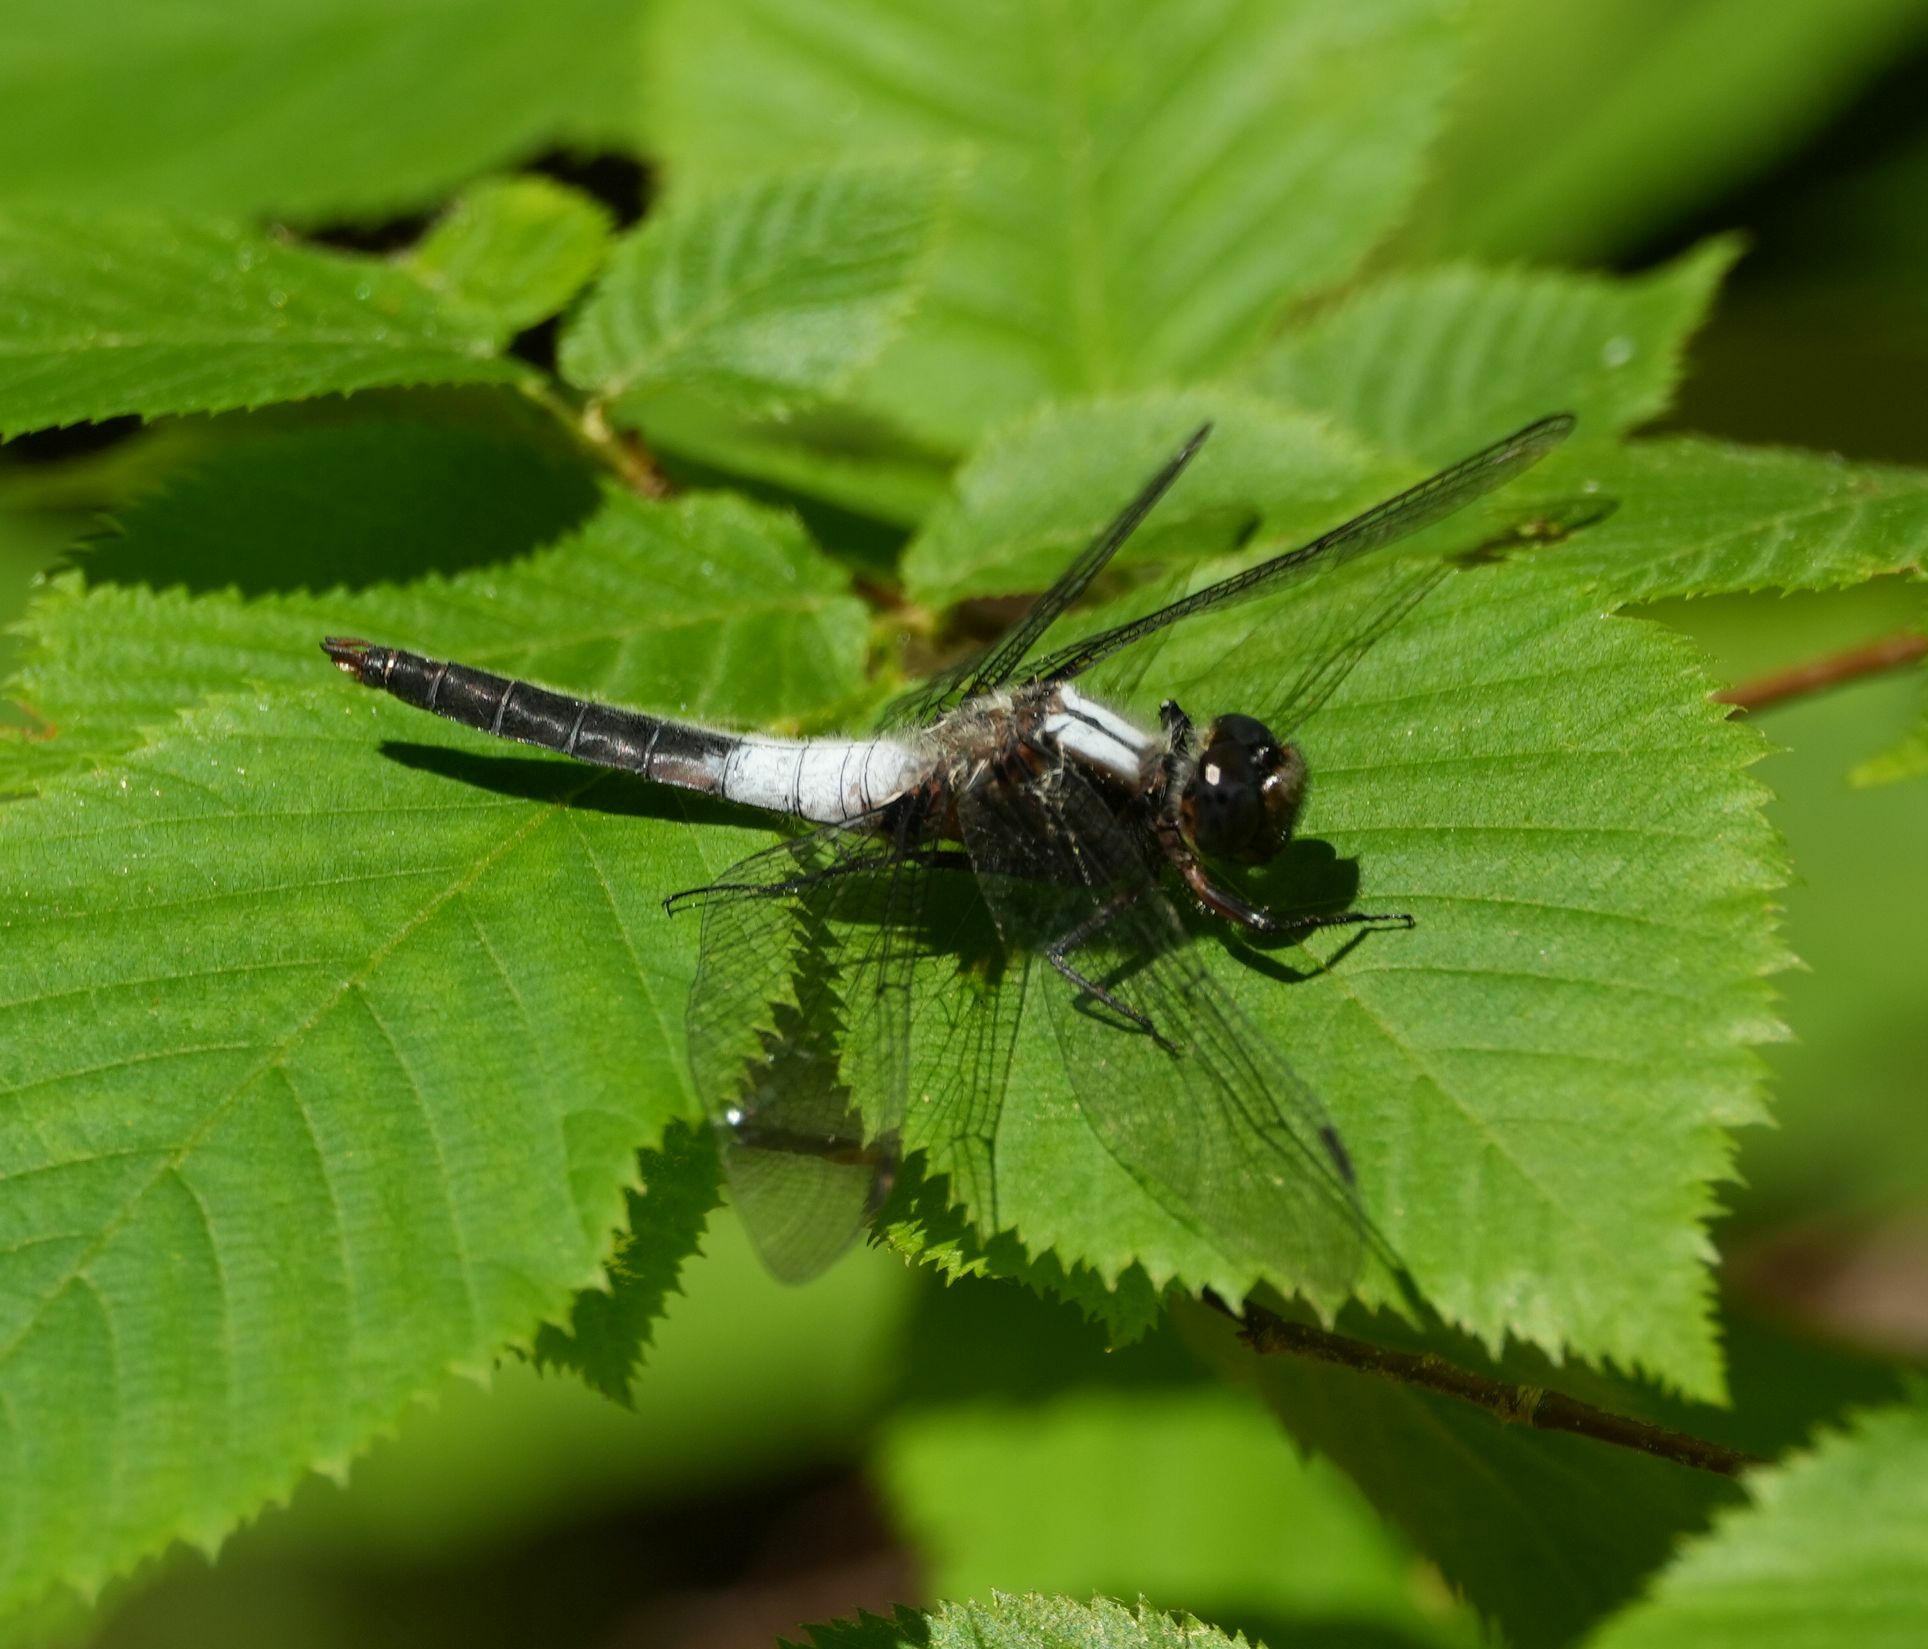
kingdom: Animalia
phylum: Arthropoda
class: Insecta
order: Odonata
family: Libellulidae
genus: Ladona
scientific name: Ladona julia
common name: Chalk-fronted corporal
